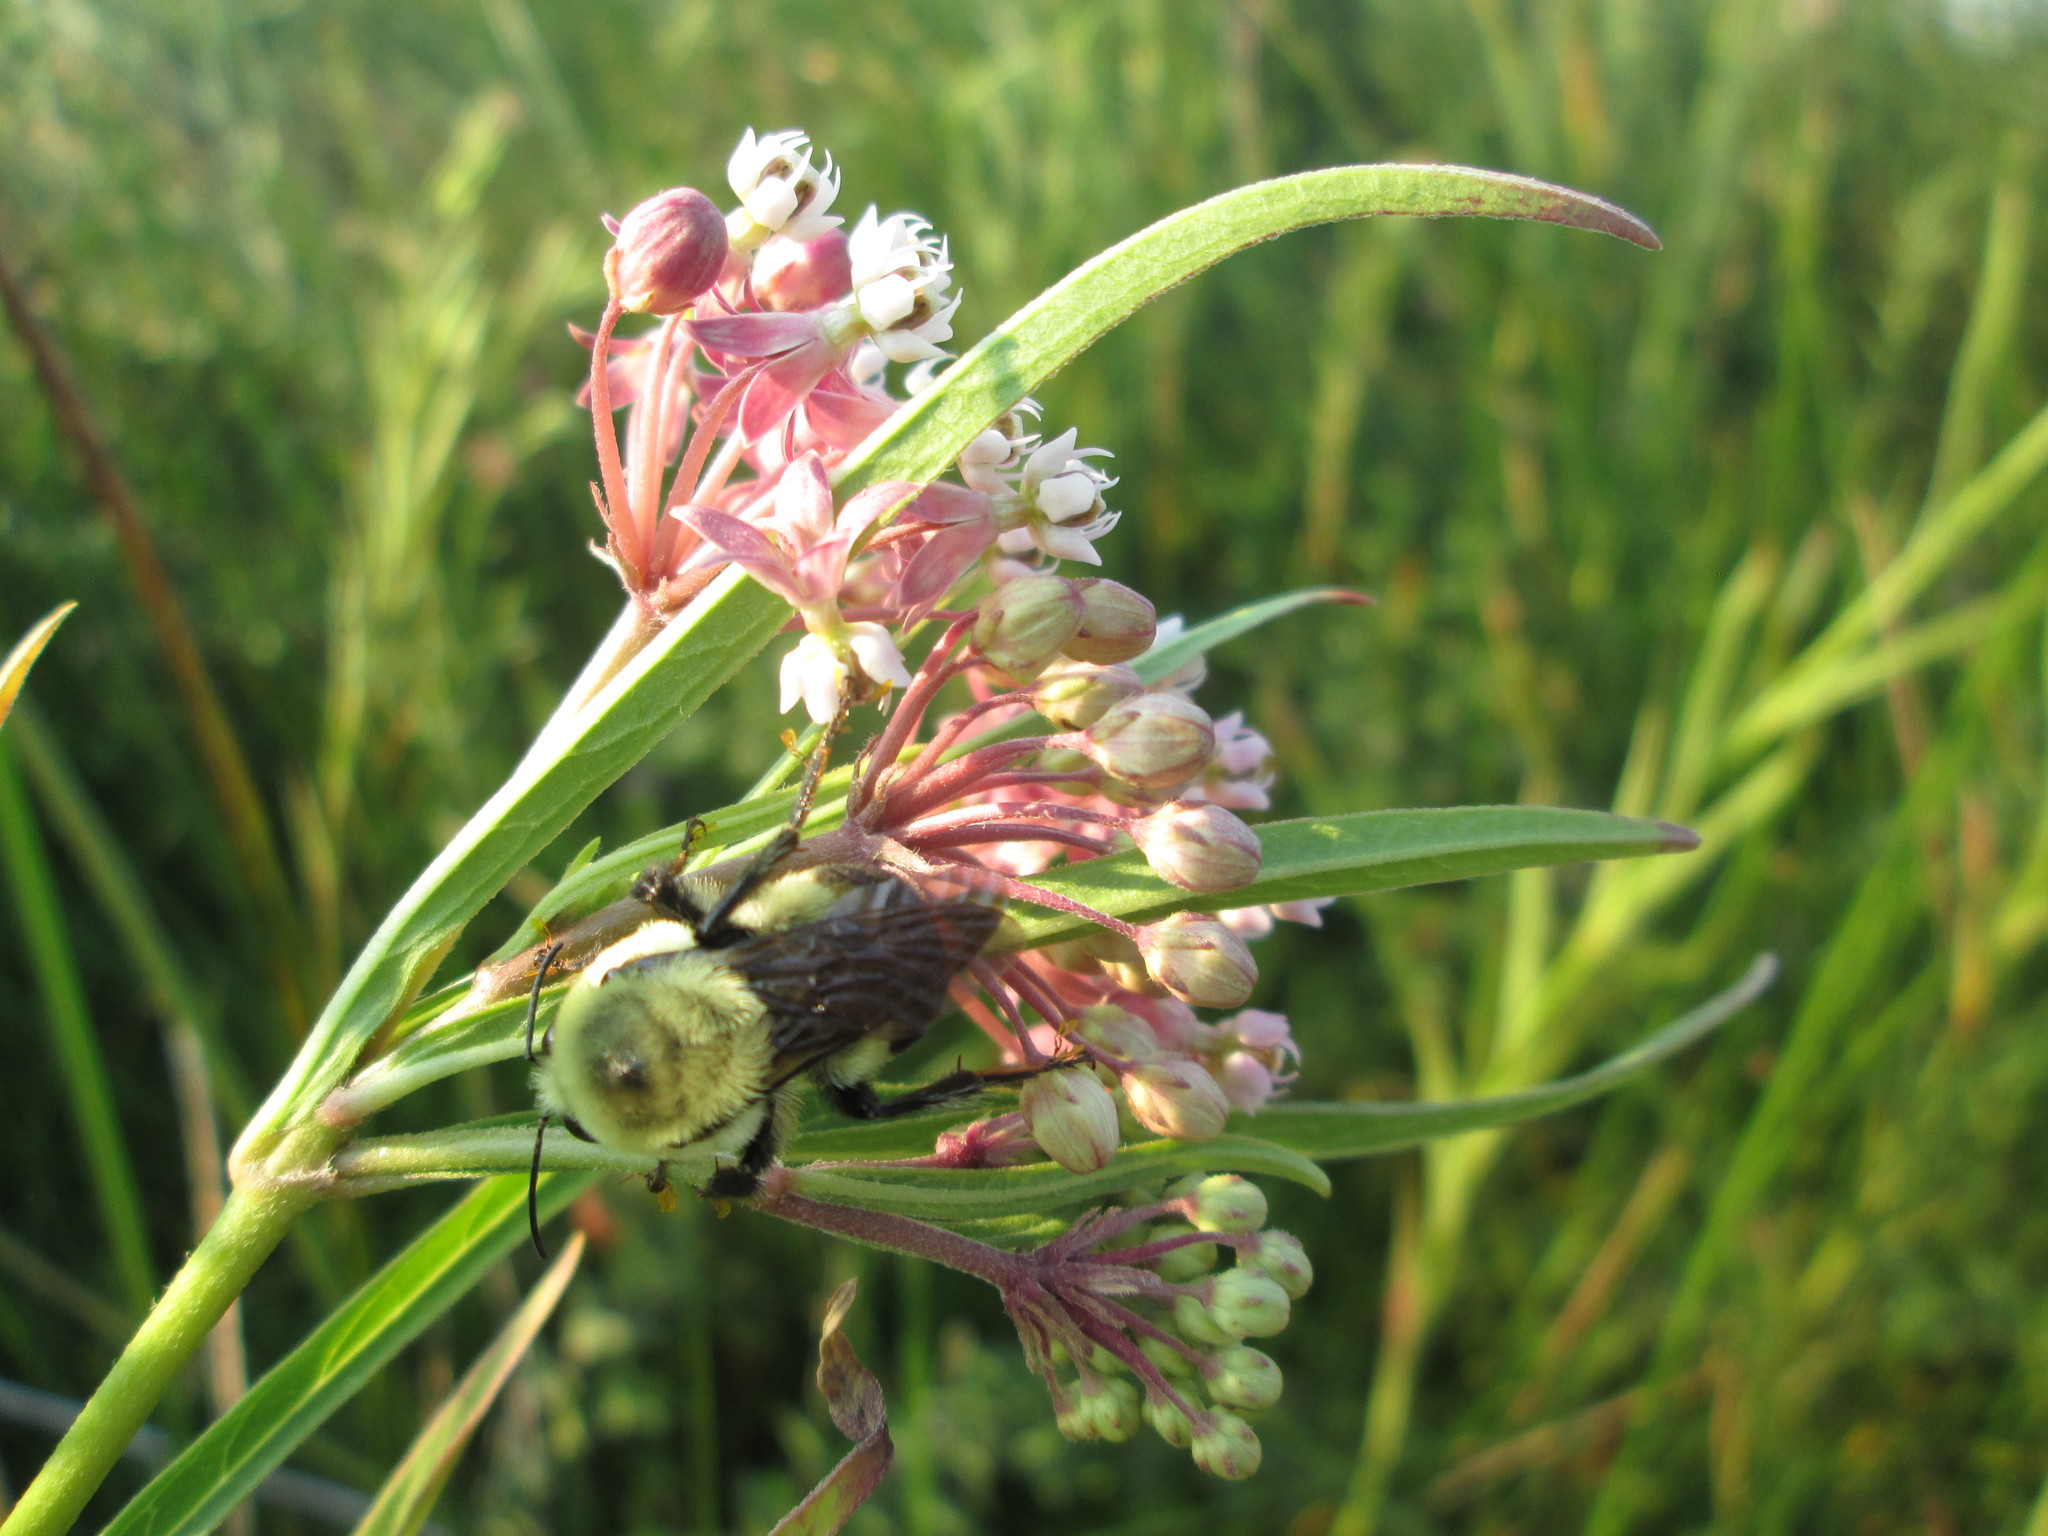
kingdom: Plantae
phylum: Tracheophyta
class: Magnoliopsida
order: Gentianales
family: Apocynaceae
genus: Asclepias
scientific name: Asclepias incarnata
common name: Swamp milkweed
